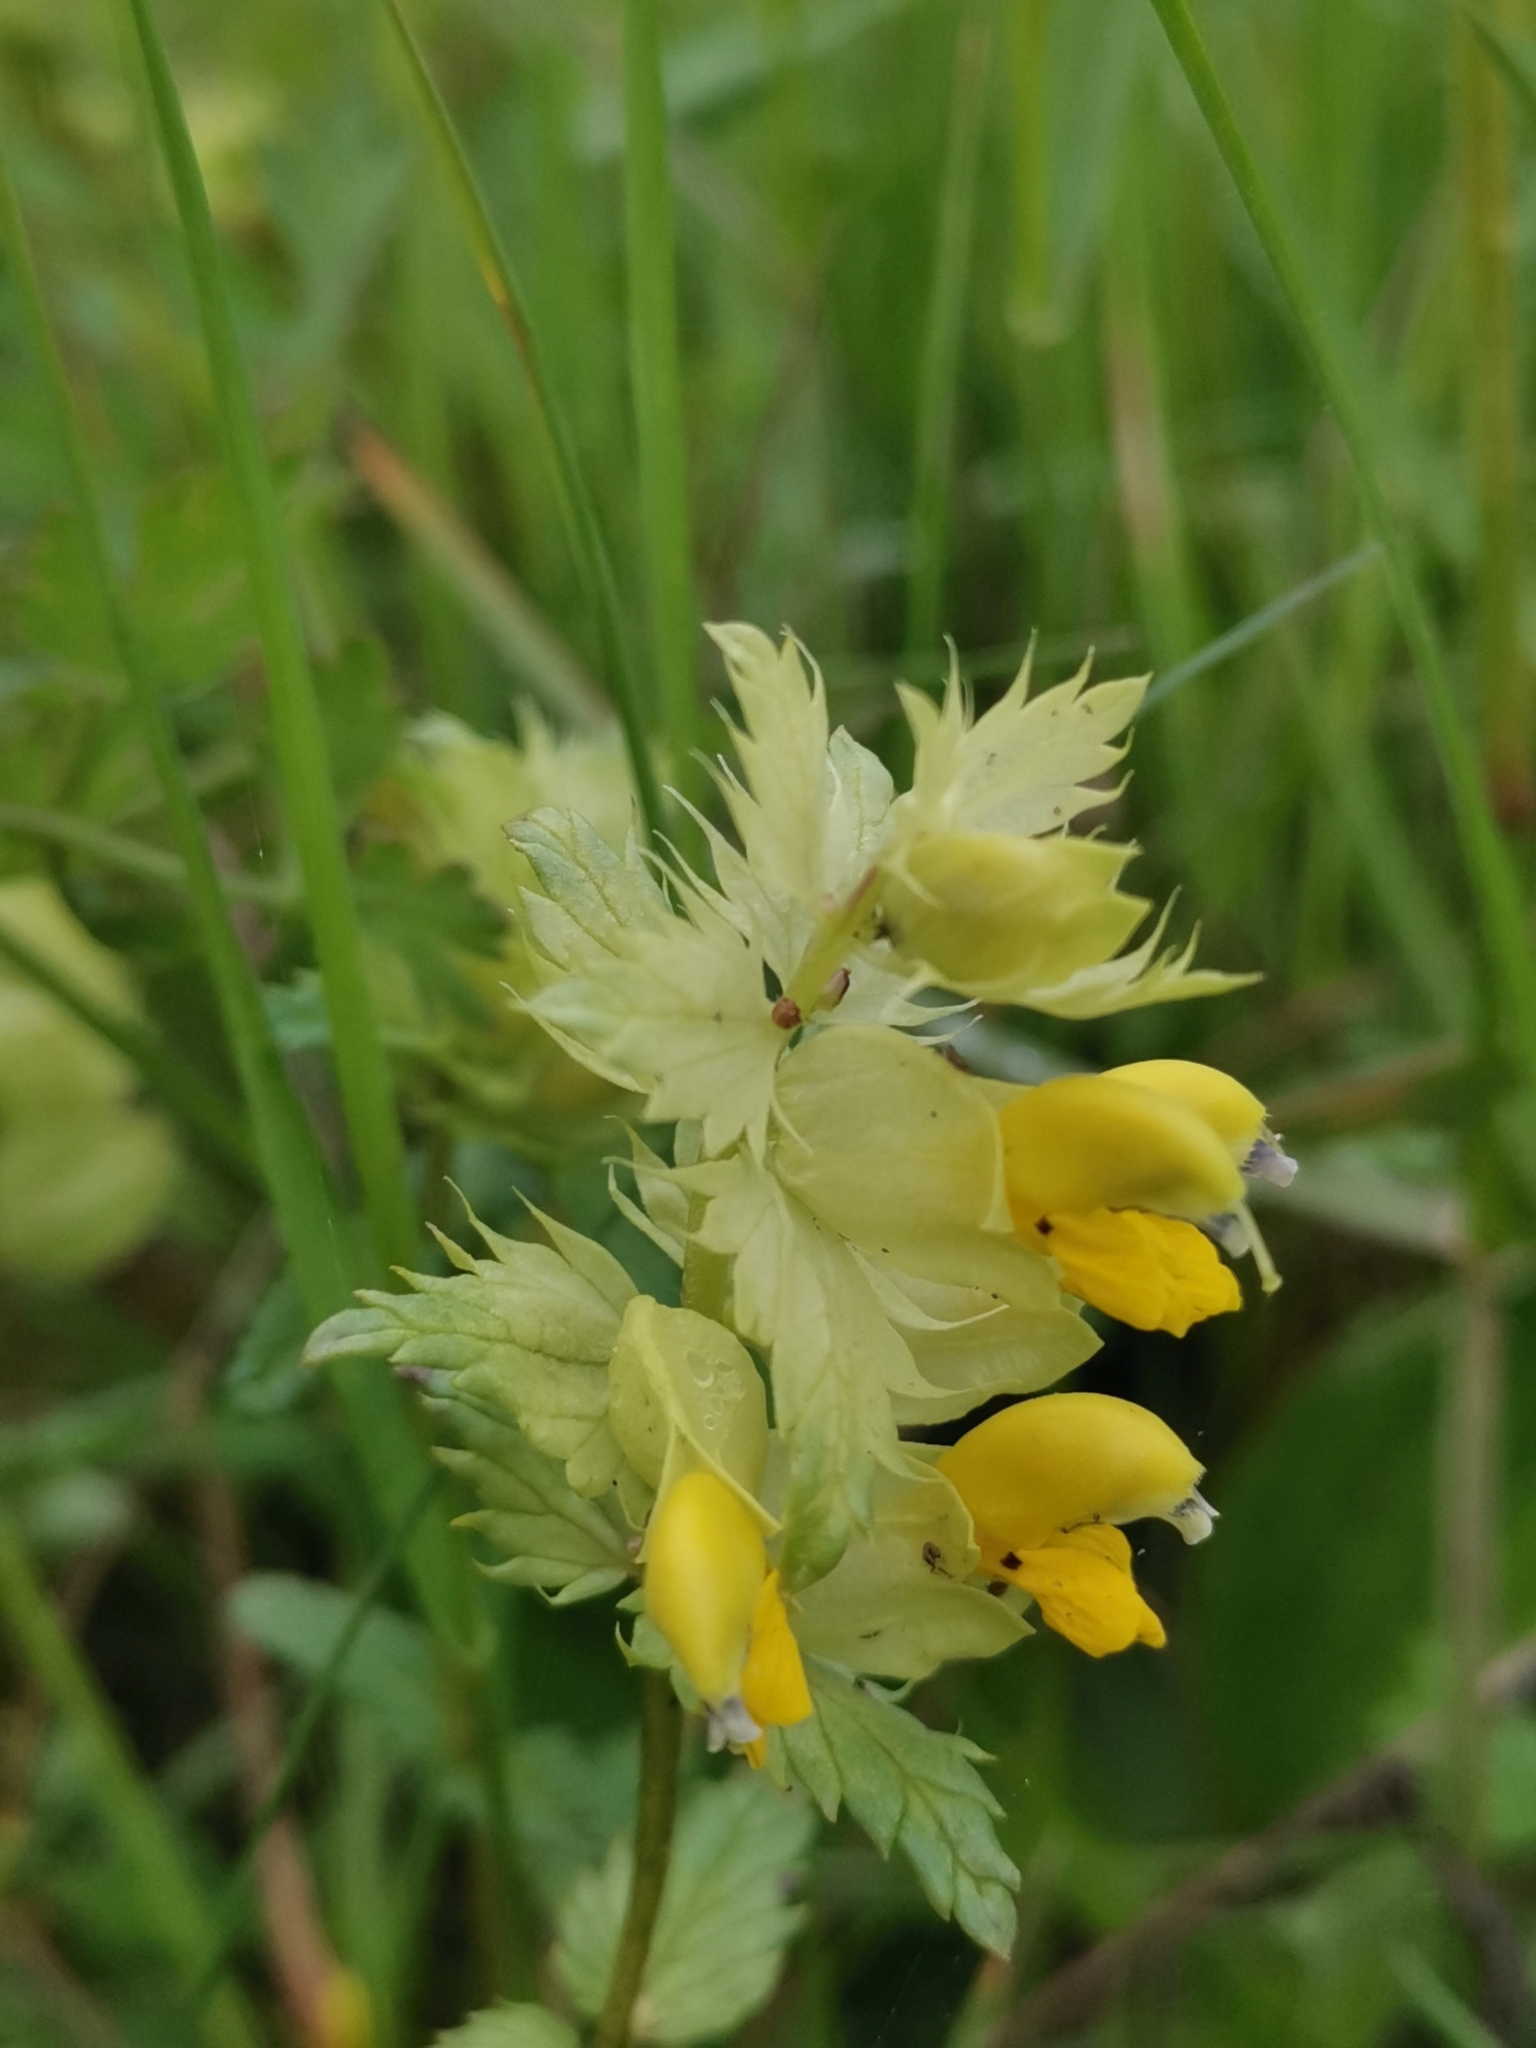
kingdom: Plantae
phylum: Tracheophyta
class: Magnoliopsida
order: Lamiales
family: Orobanchaceae
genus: Rhinanthus
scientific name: Rhinanthus glacialis
